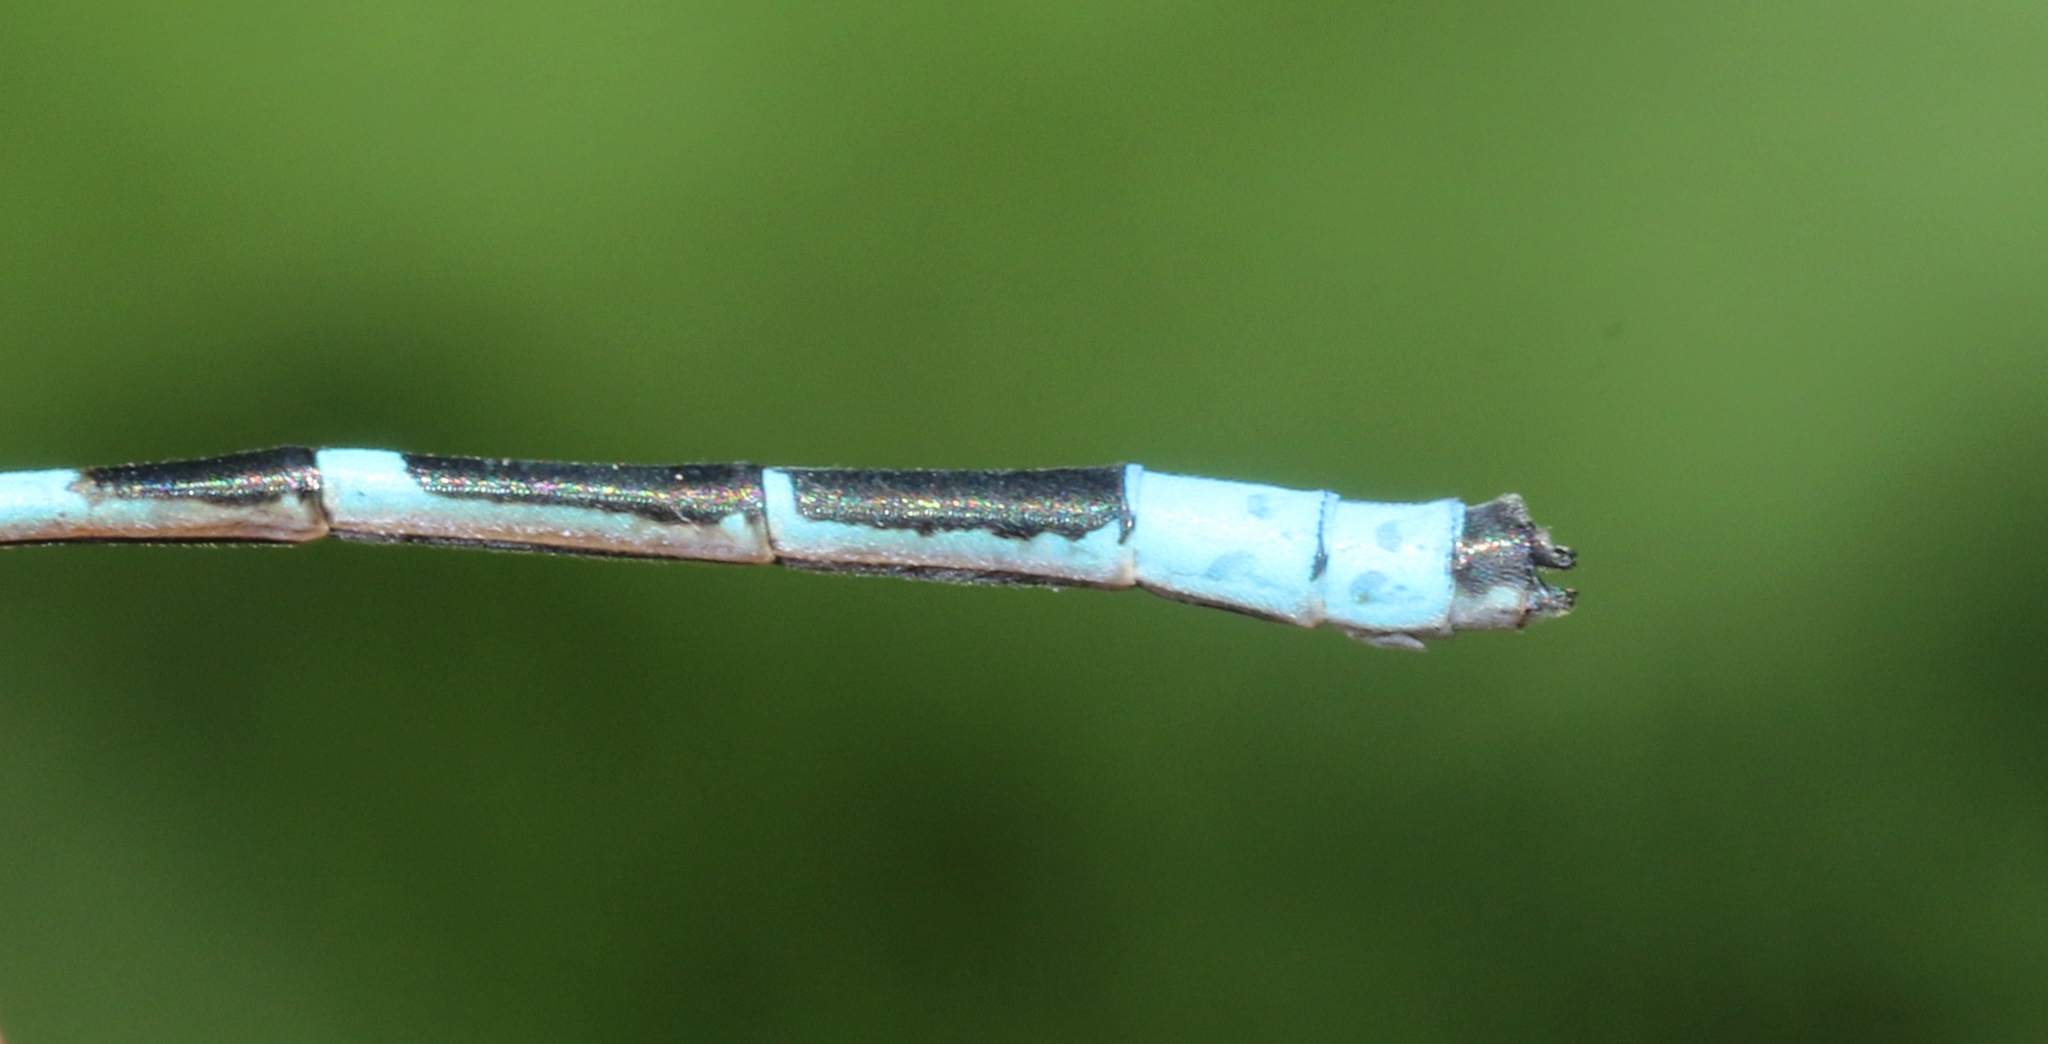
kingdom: Animalia
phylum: Arthropoda
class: Insecta
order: Odonata
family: Coenagrionidae
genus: Enallagma
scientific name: Enallagma hageni
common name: Hagen's bluet
